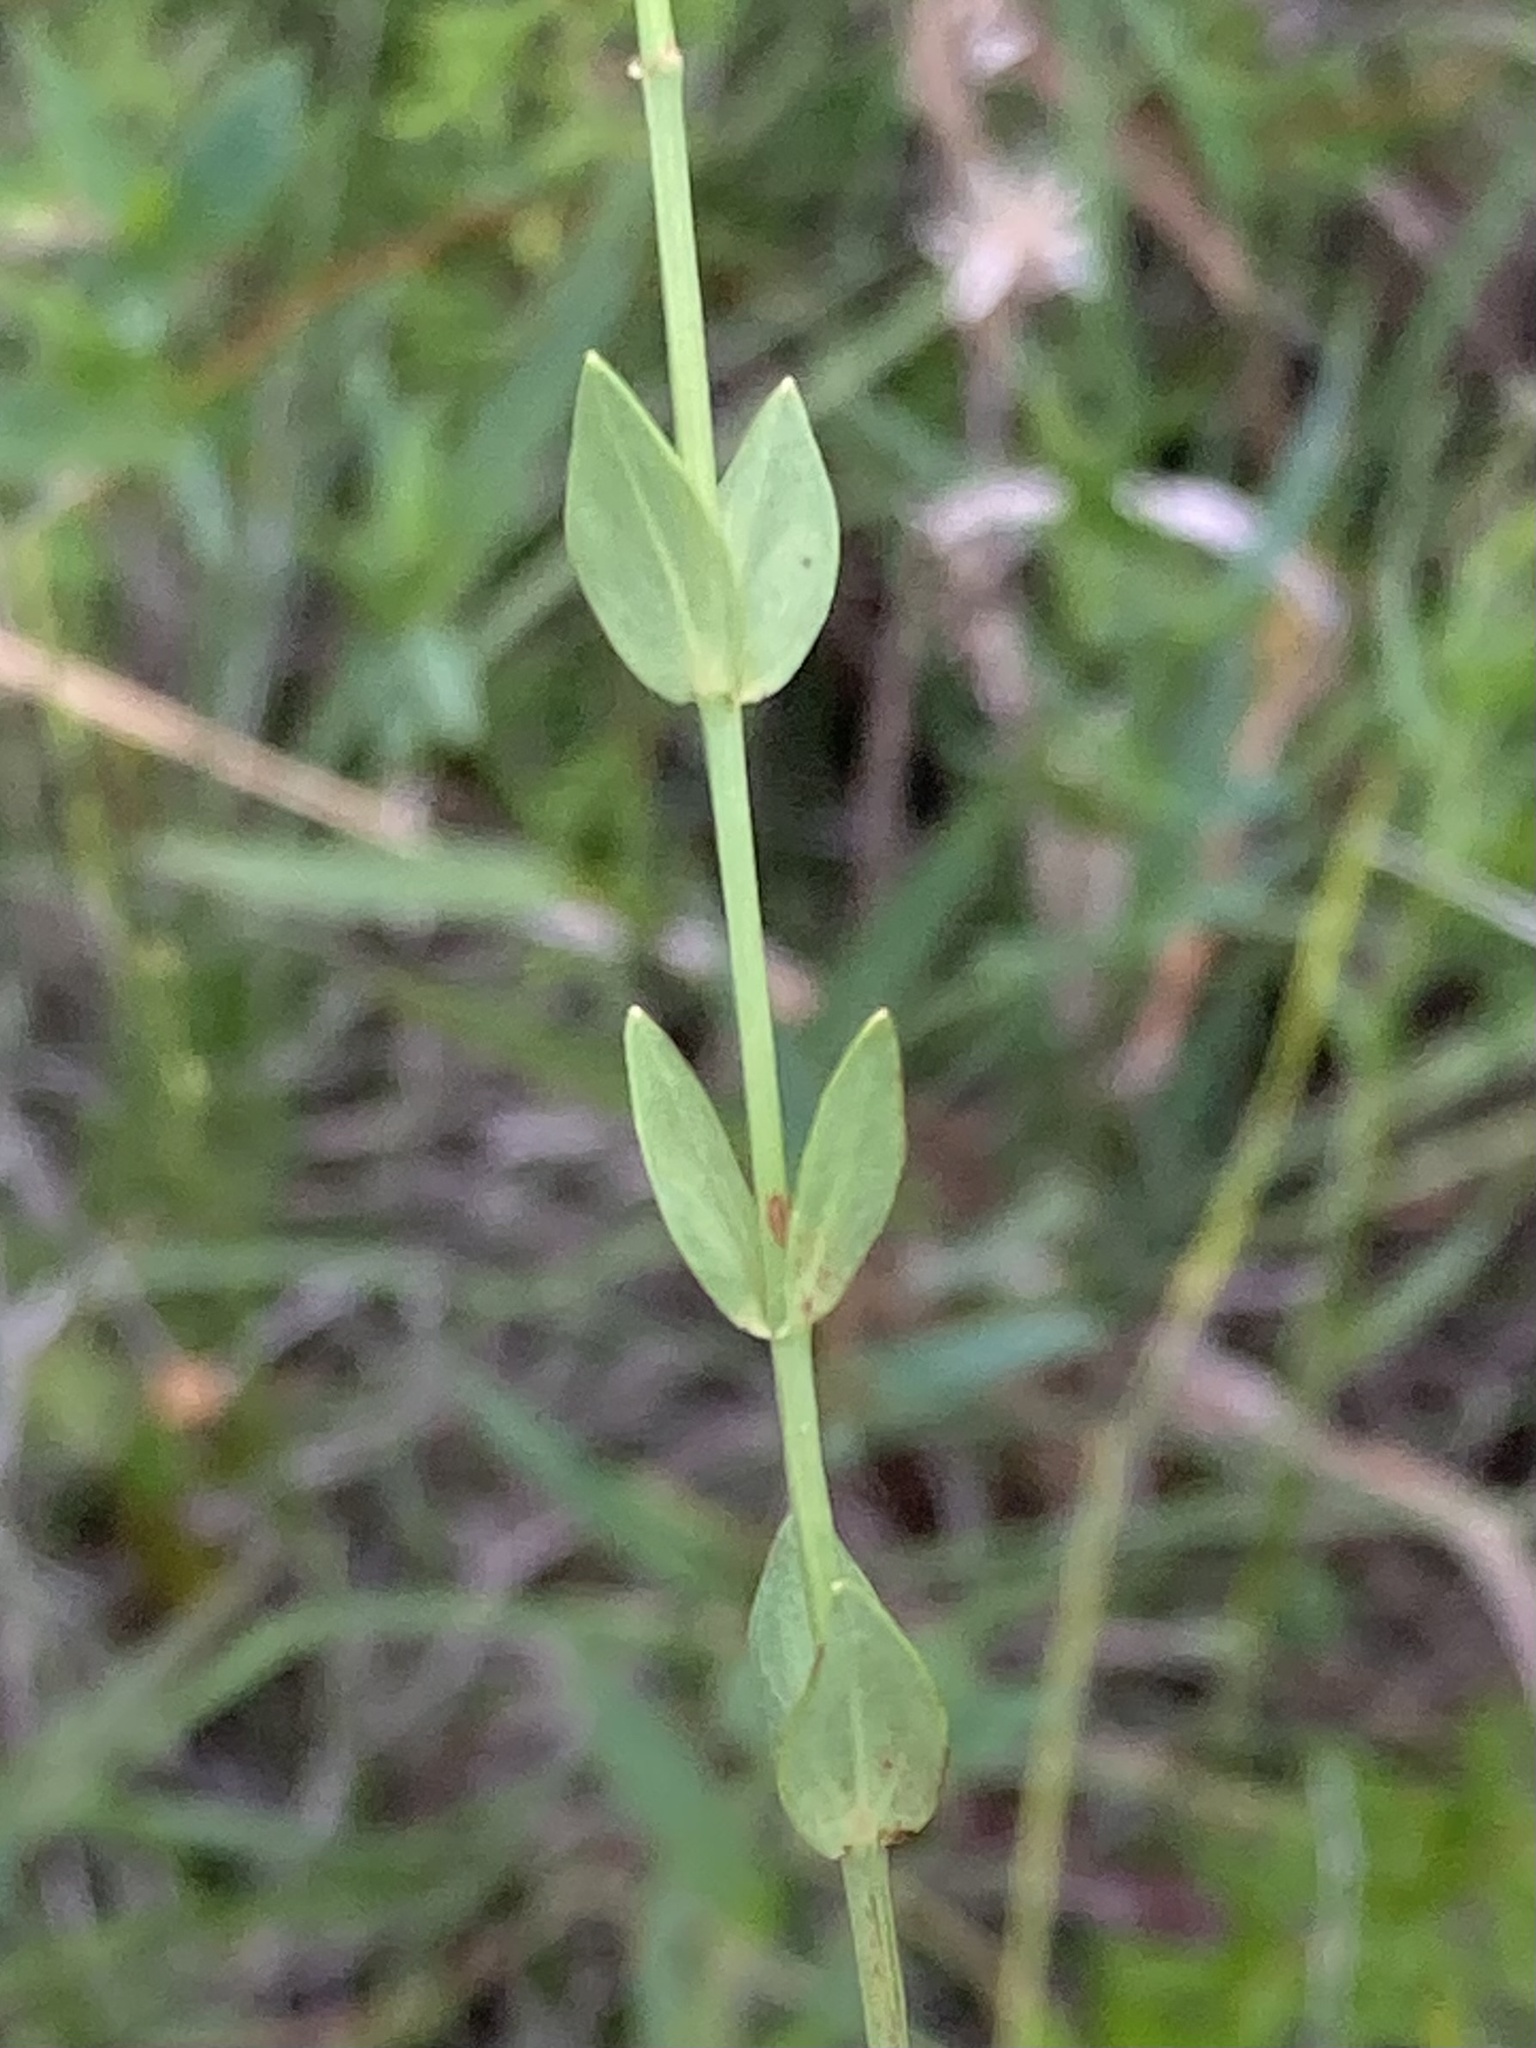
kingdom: Plantae
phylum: Tracheophyta
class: Magnoliopsida
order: Malpighiales
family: Hypericaceae
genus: Hypericum
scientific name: Hypericum denticulatum
